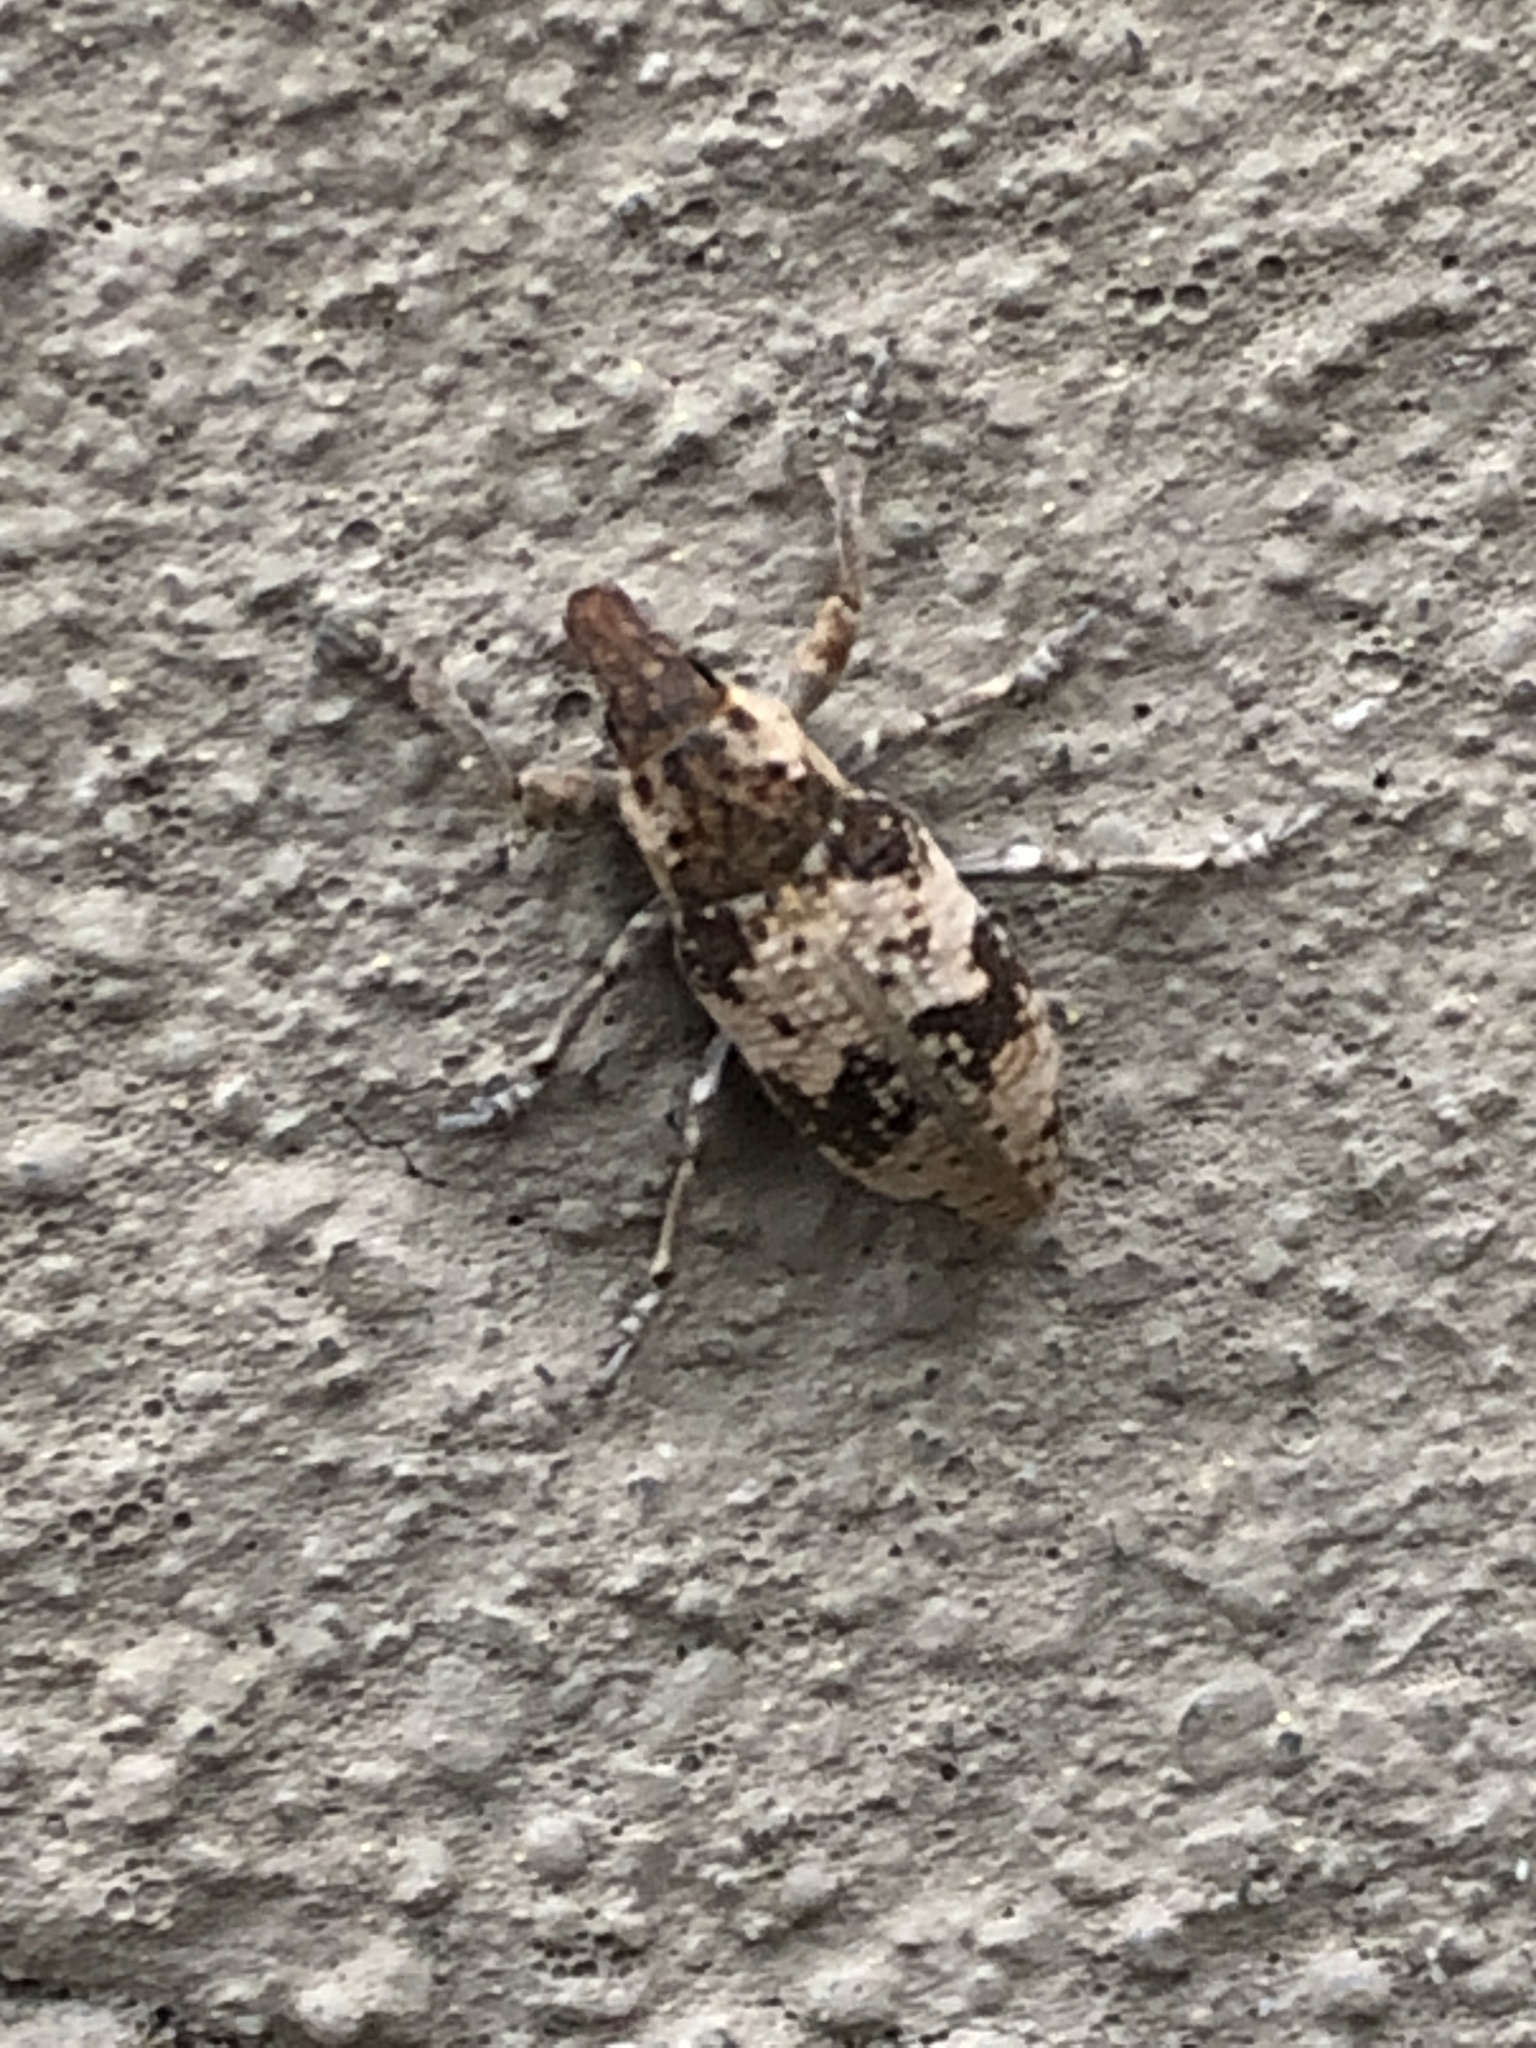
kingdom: Animalia
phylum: Arthropoda
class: Insecta
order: Coleoptera
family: Curculionidae
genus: Bothynoderes
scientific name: Bothynoderes affinis
